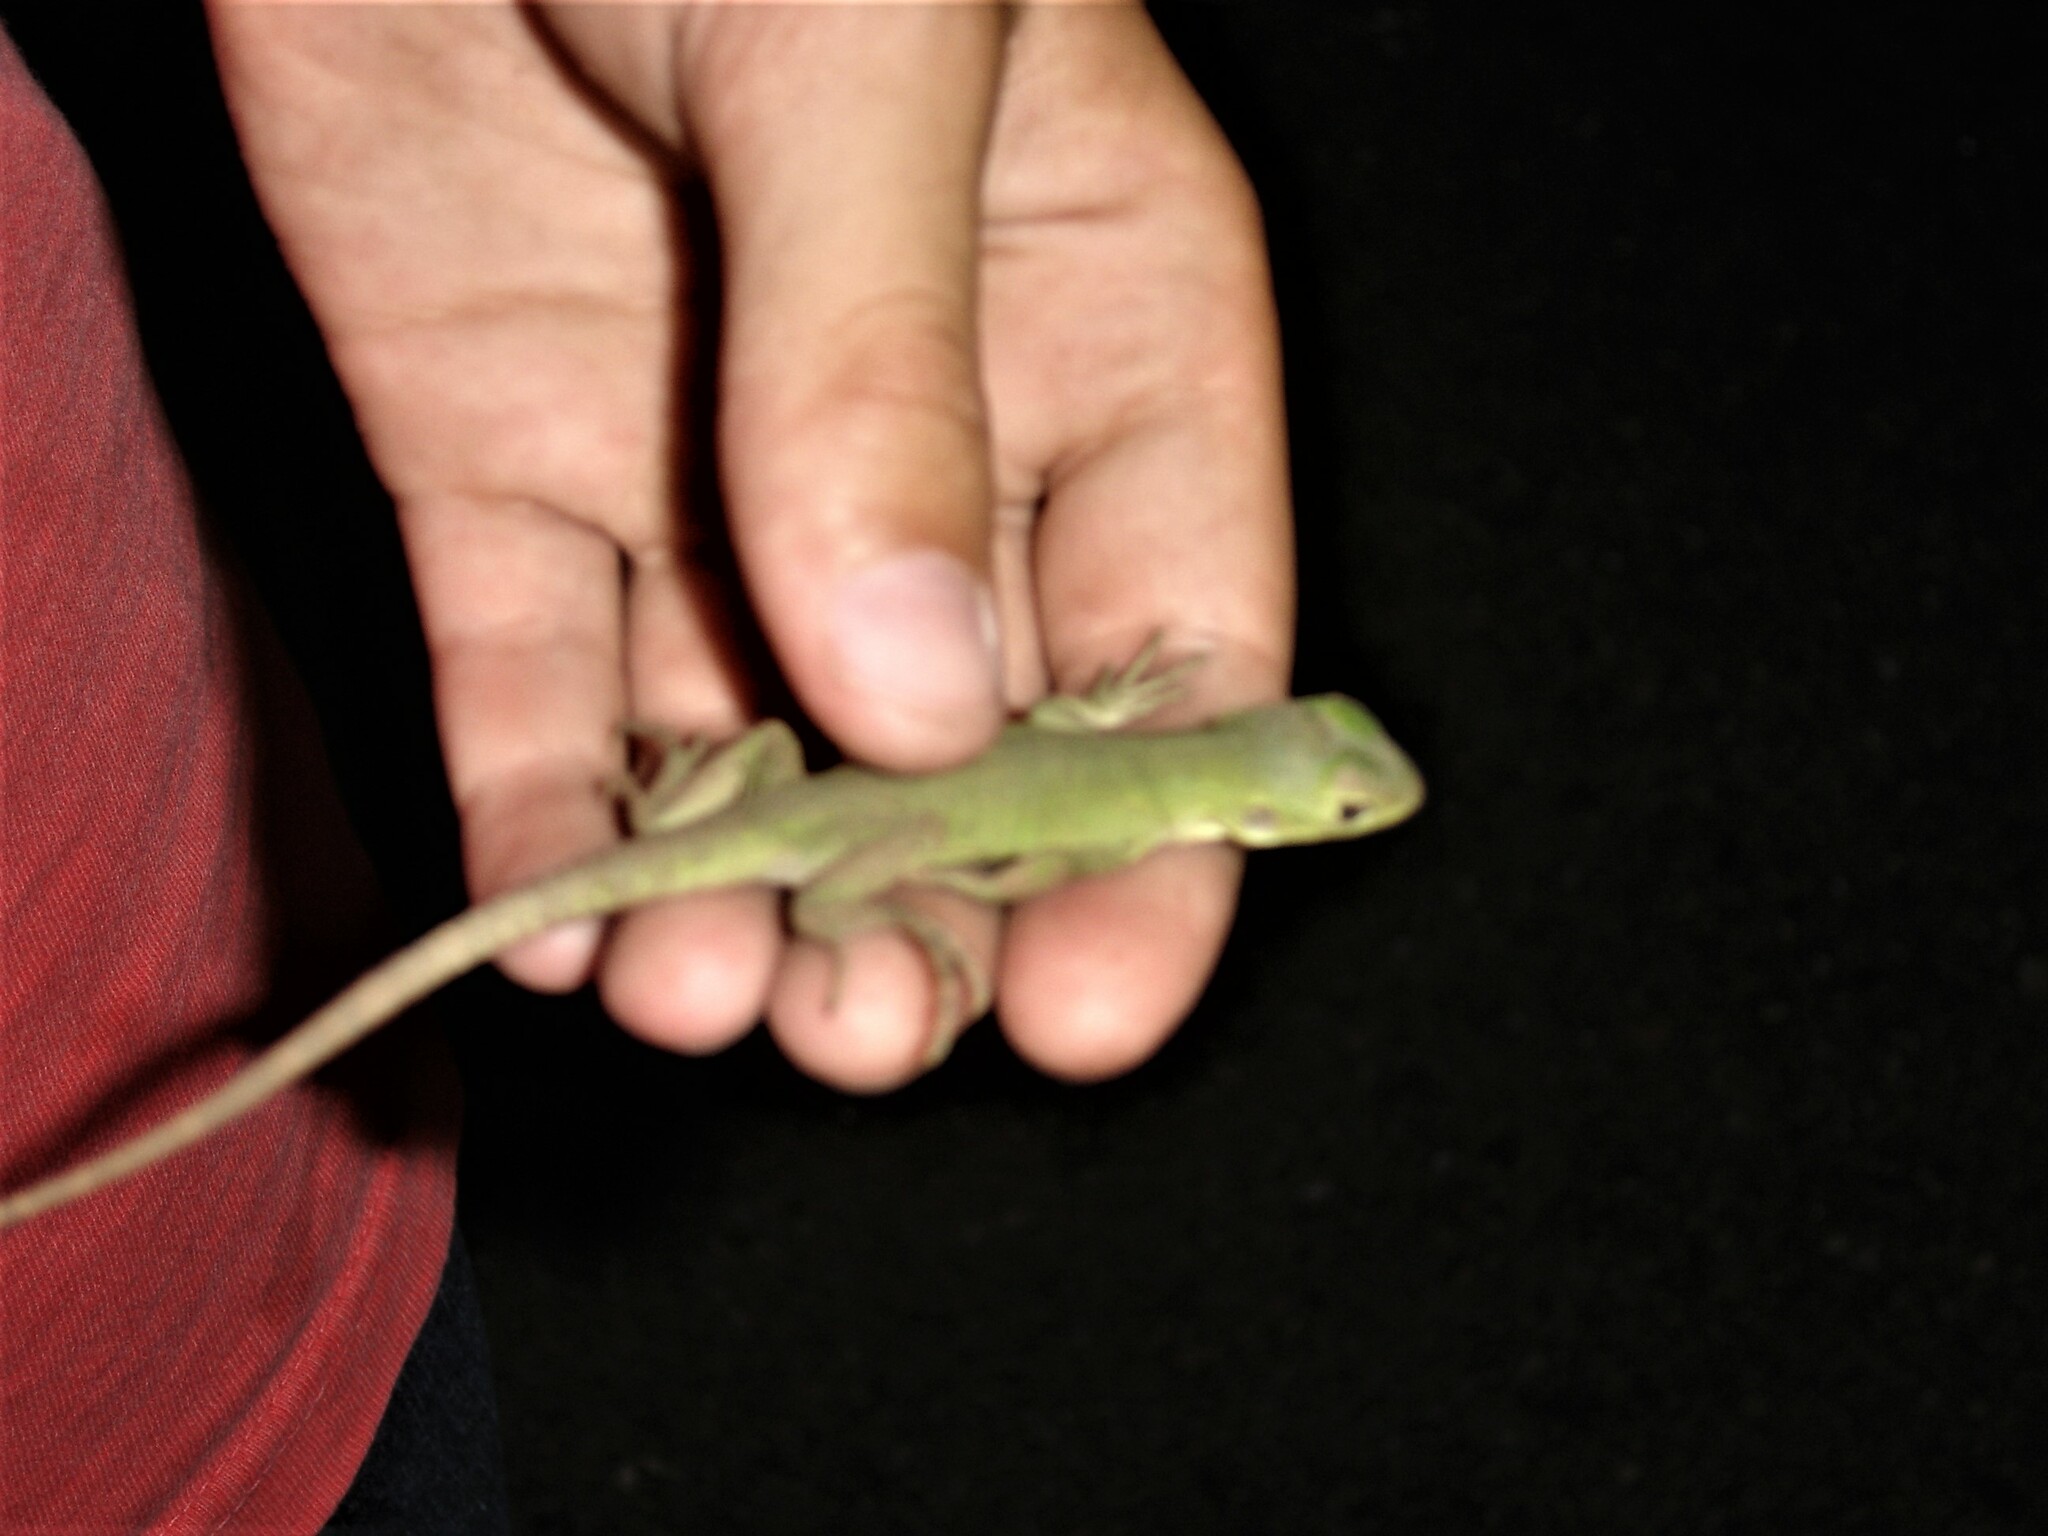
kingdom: Animalia
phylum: Chordata
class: Squamata
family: Iguanidae
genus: Ctenosaura
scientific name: Ctenosaura macrolopha
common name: Cape spinytail iguana
